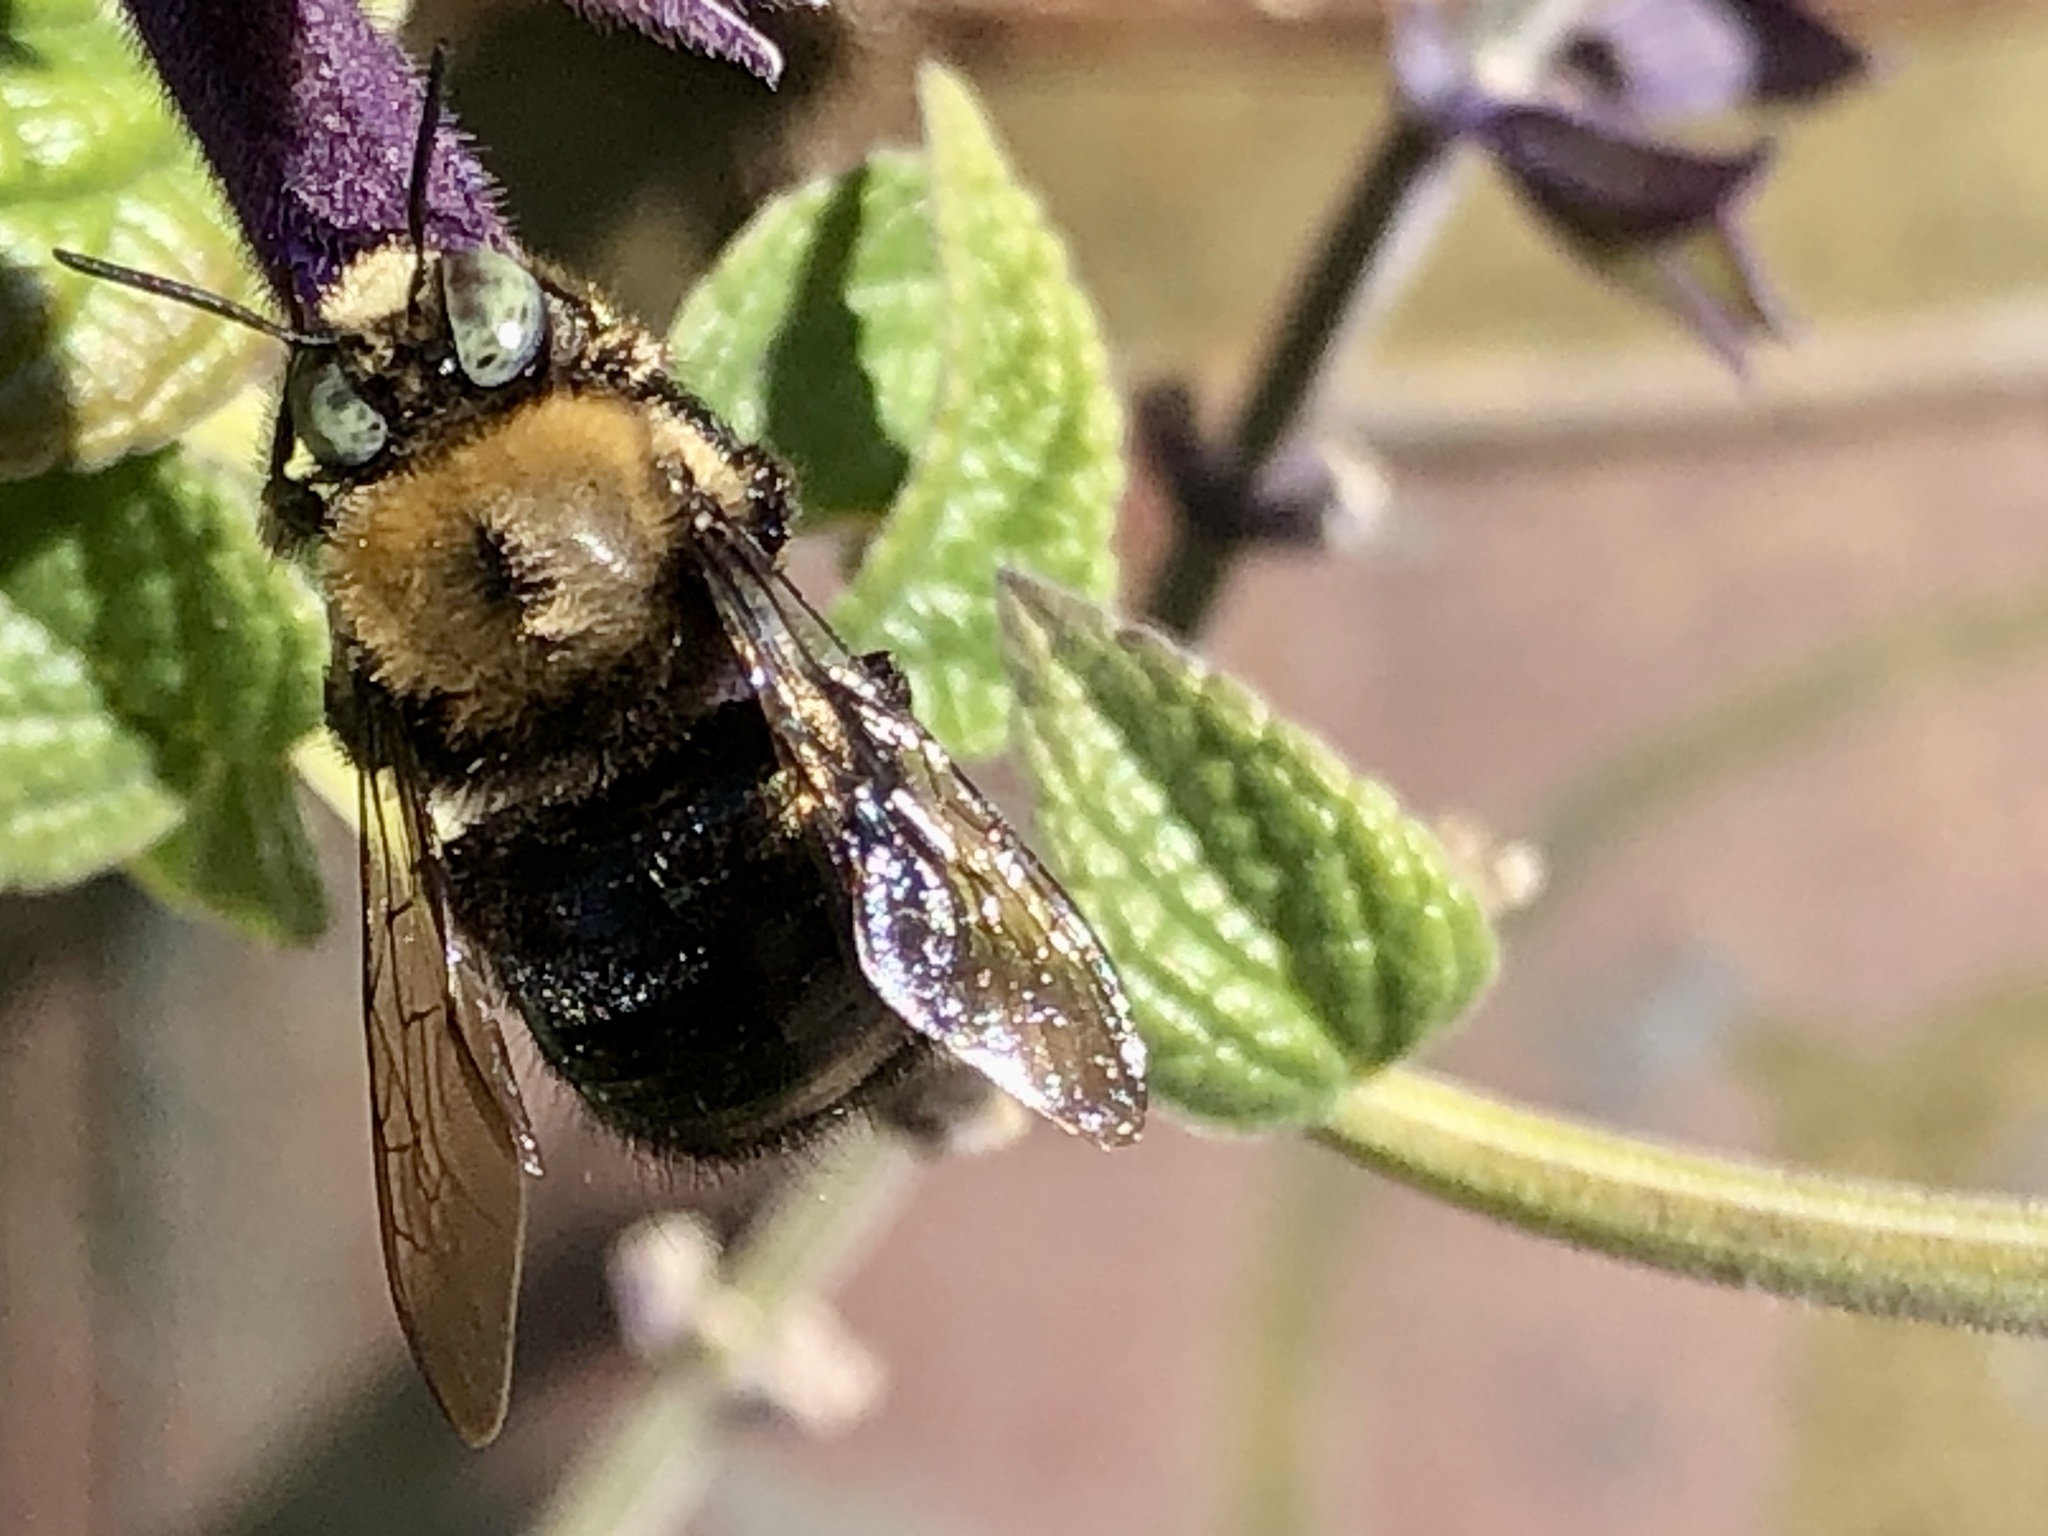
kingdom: Animalia
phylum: Arthropoda
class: Insecta
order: Hymenoptera
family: Apidae
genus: Xylocopa
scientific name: Xylocopa tabaniformis
